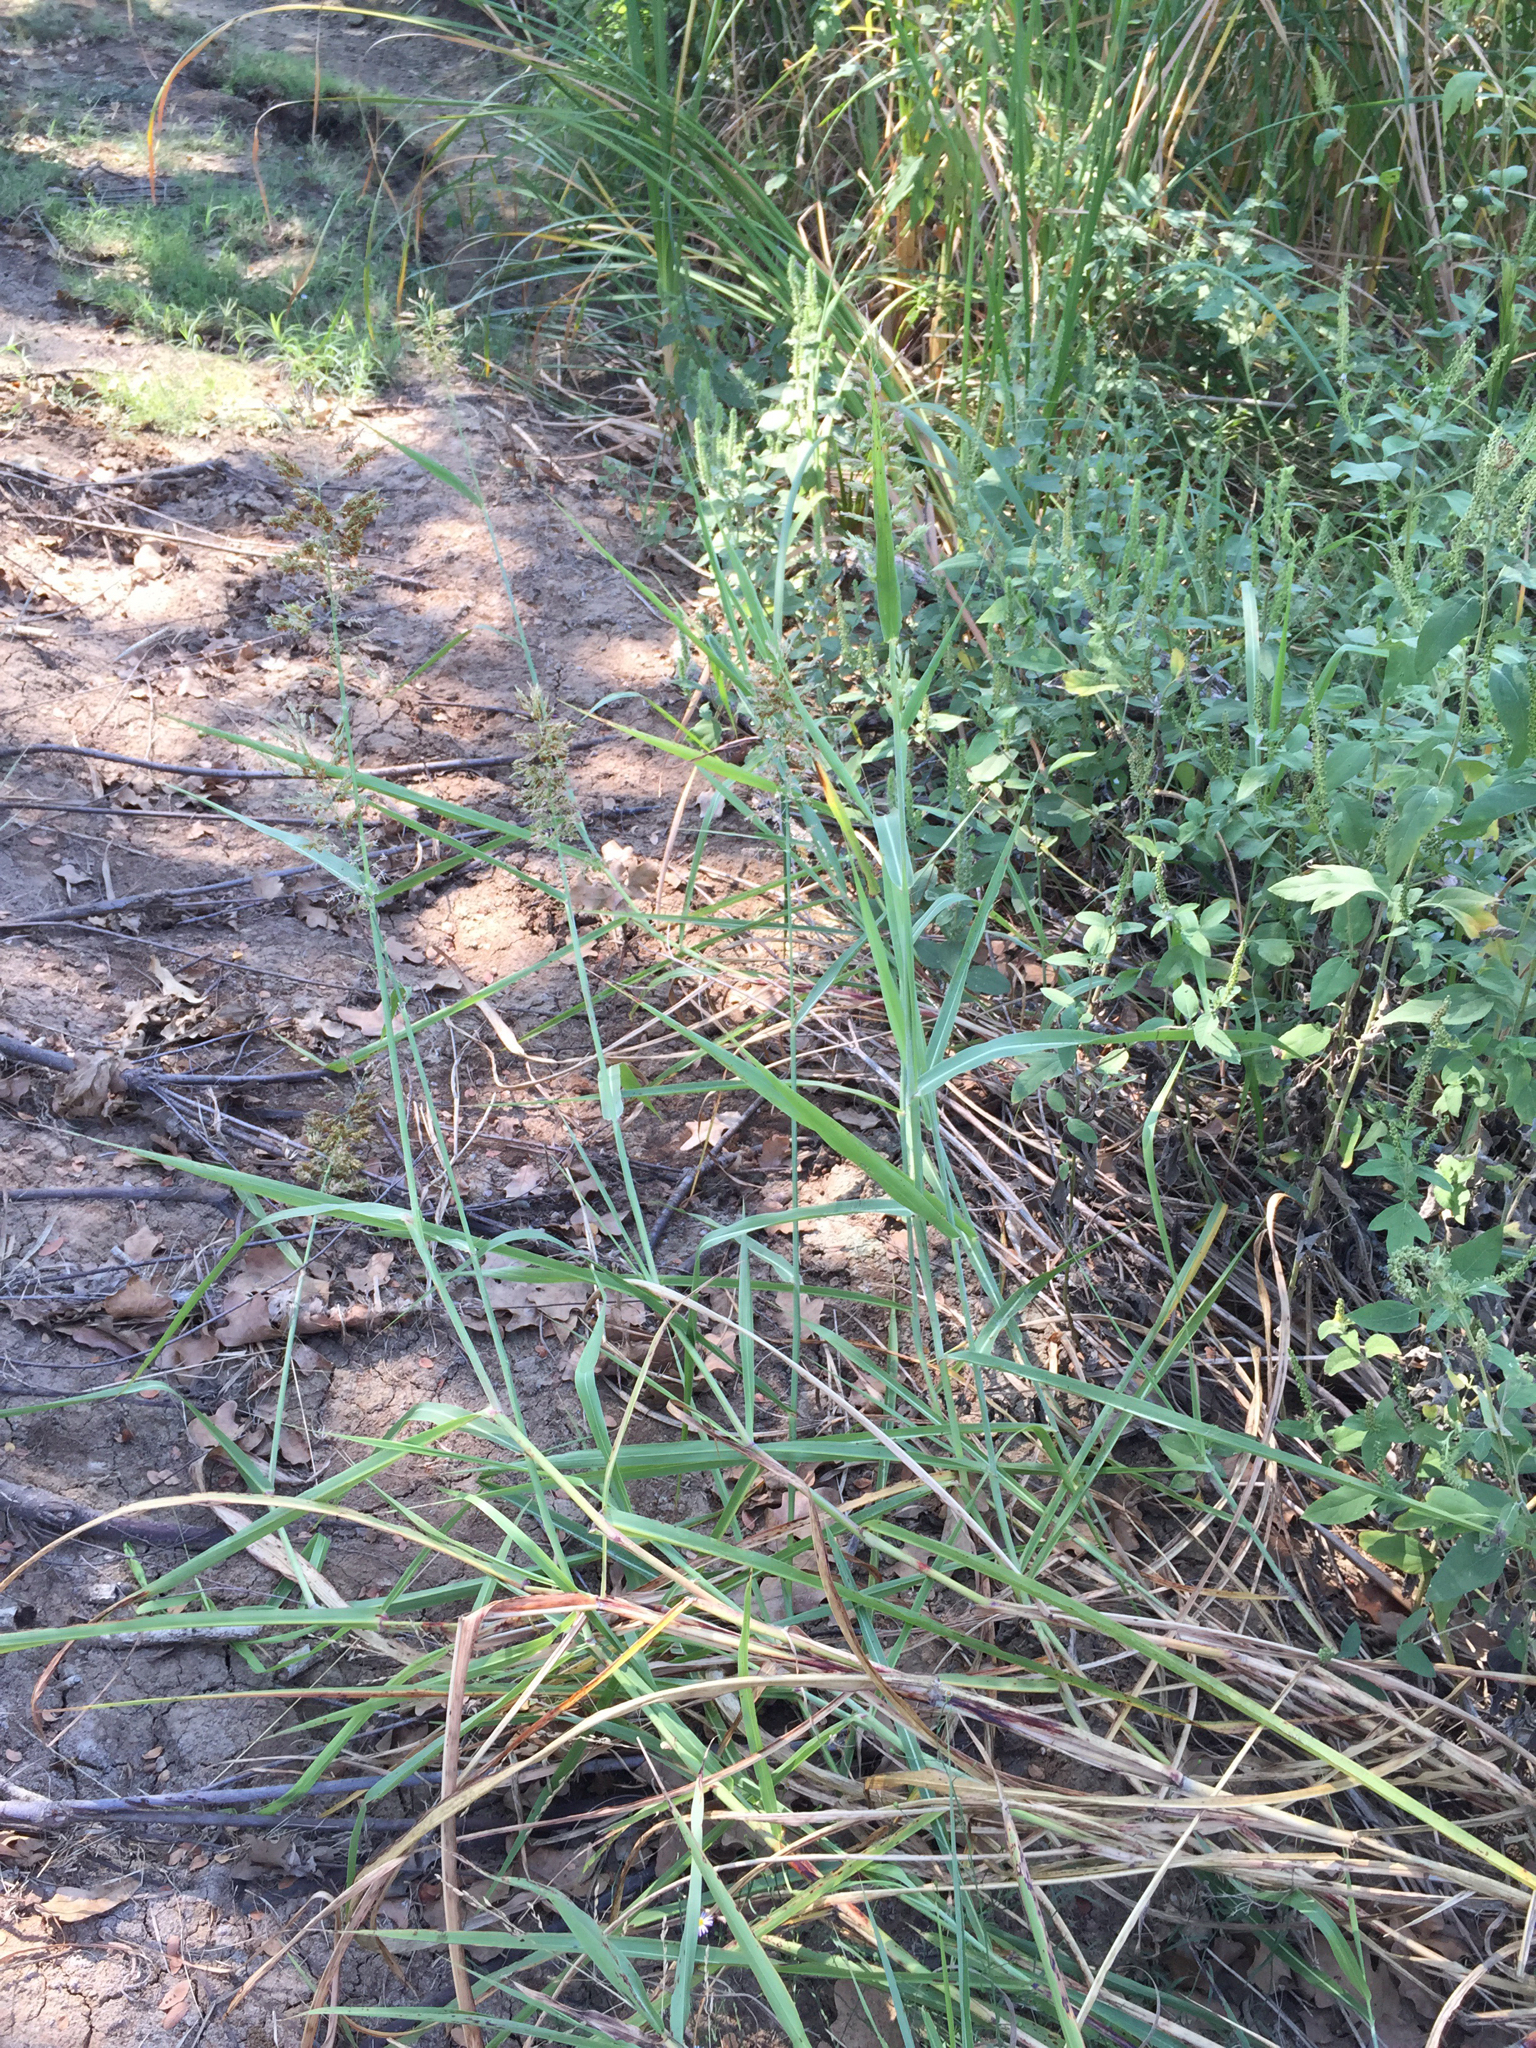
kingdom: Plantae
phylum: Tracheophyta
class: Liliopsida
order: Poales
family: Poaceae
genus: Sorghum
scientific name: Sorghum halepense
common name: Johnson-grass
